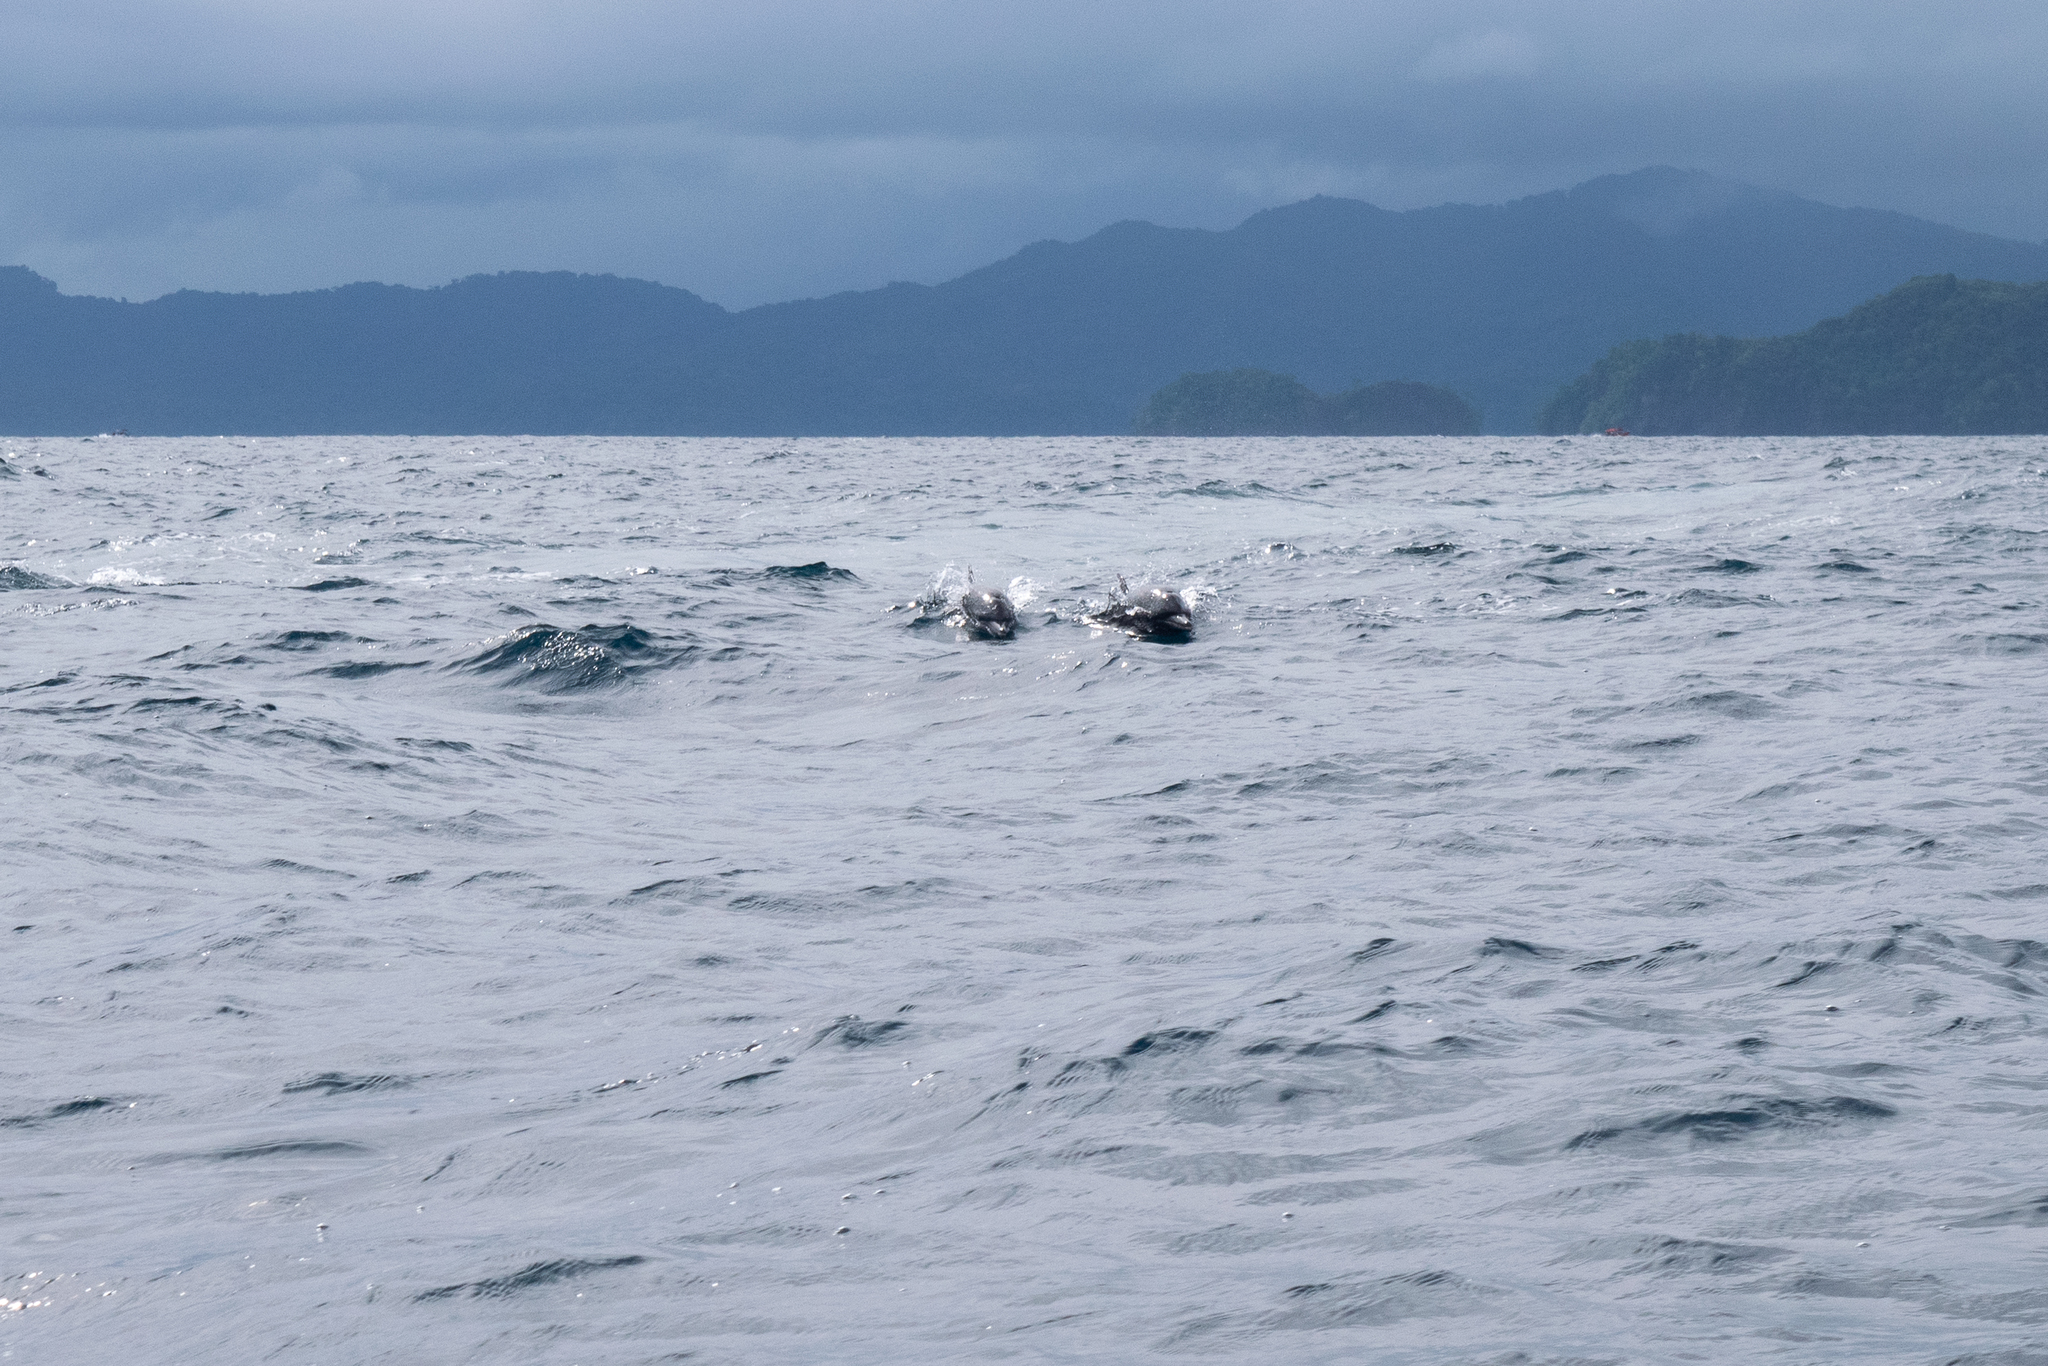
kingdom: Animalia
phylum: Chordata
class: Mammalia
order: Cetacea
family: Delphinidae
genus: Stenella
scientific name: Stenella attenuata
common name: Pantropical spotted dolphin
